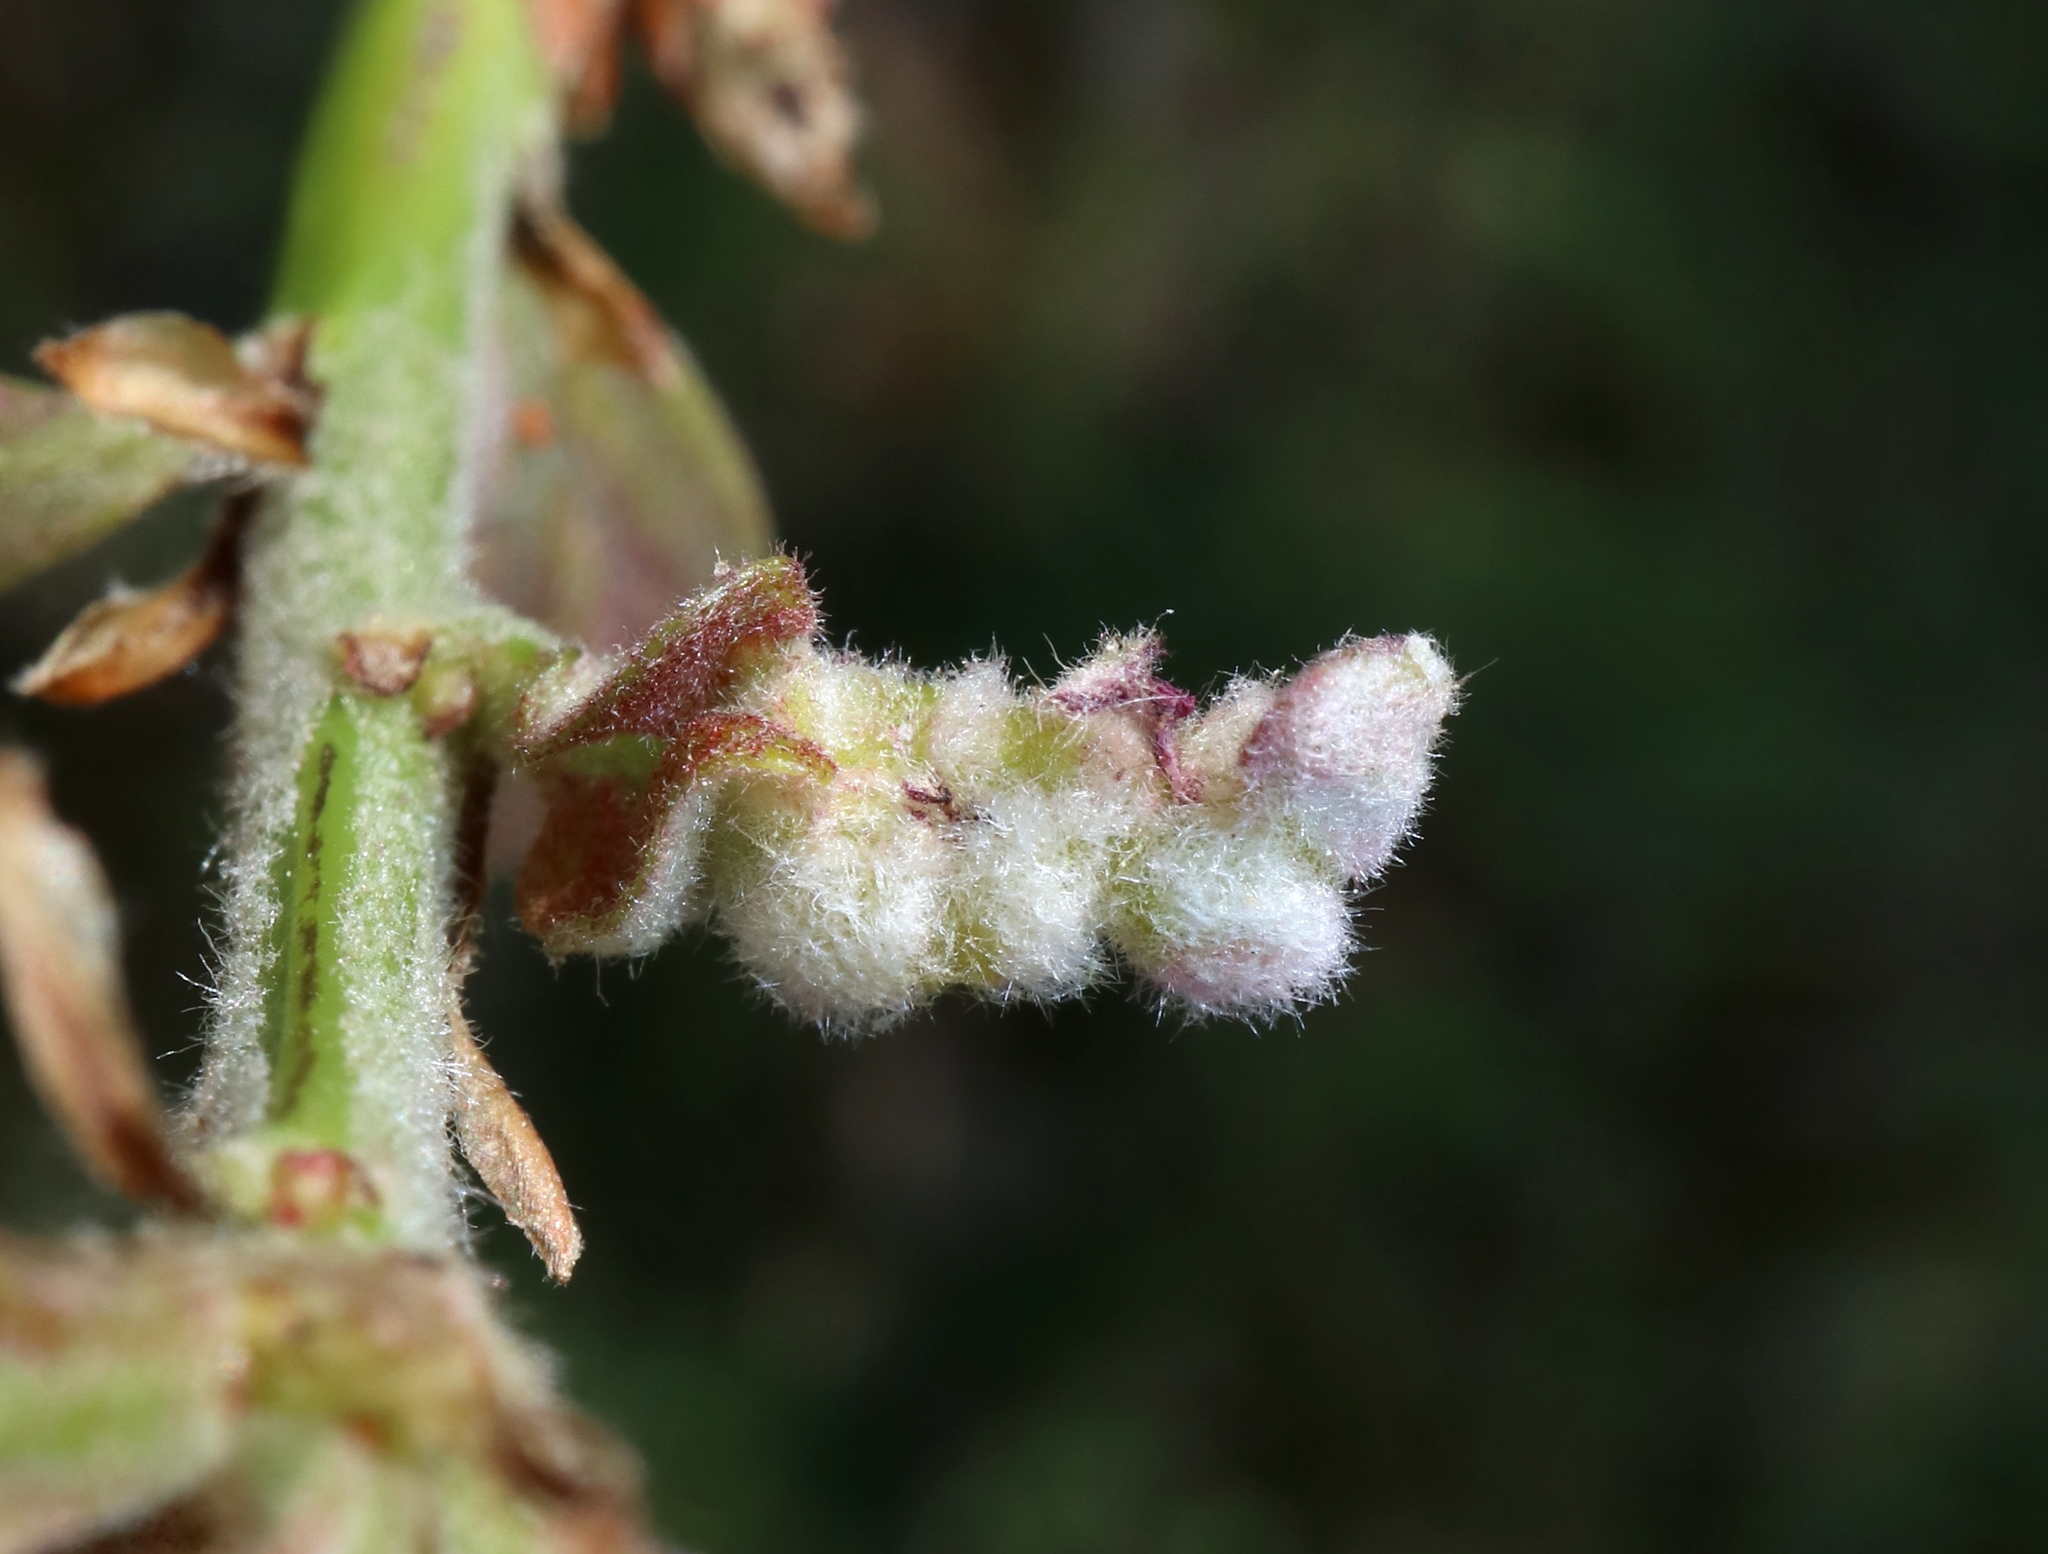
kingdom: Animalia
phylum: Arthropoda
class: Insecta
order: Hymenoptera
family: Cynipidae
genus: Neuroterus
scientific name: Neuroterus minutulus
